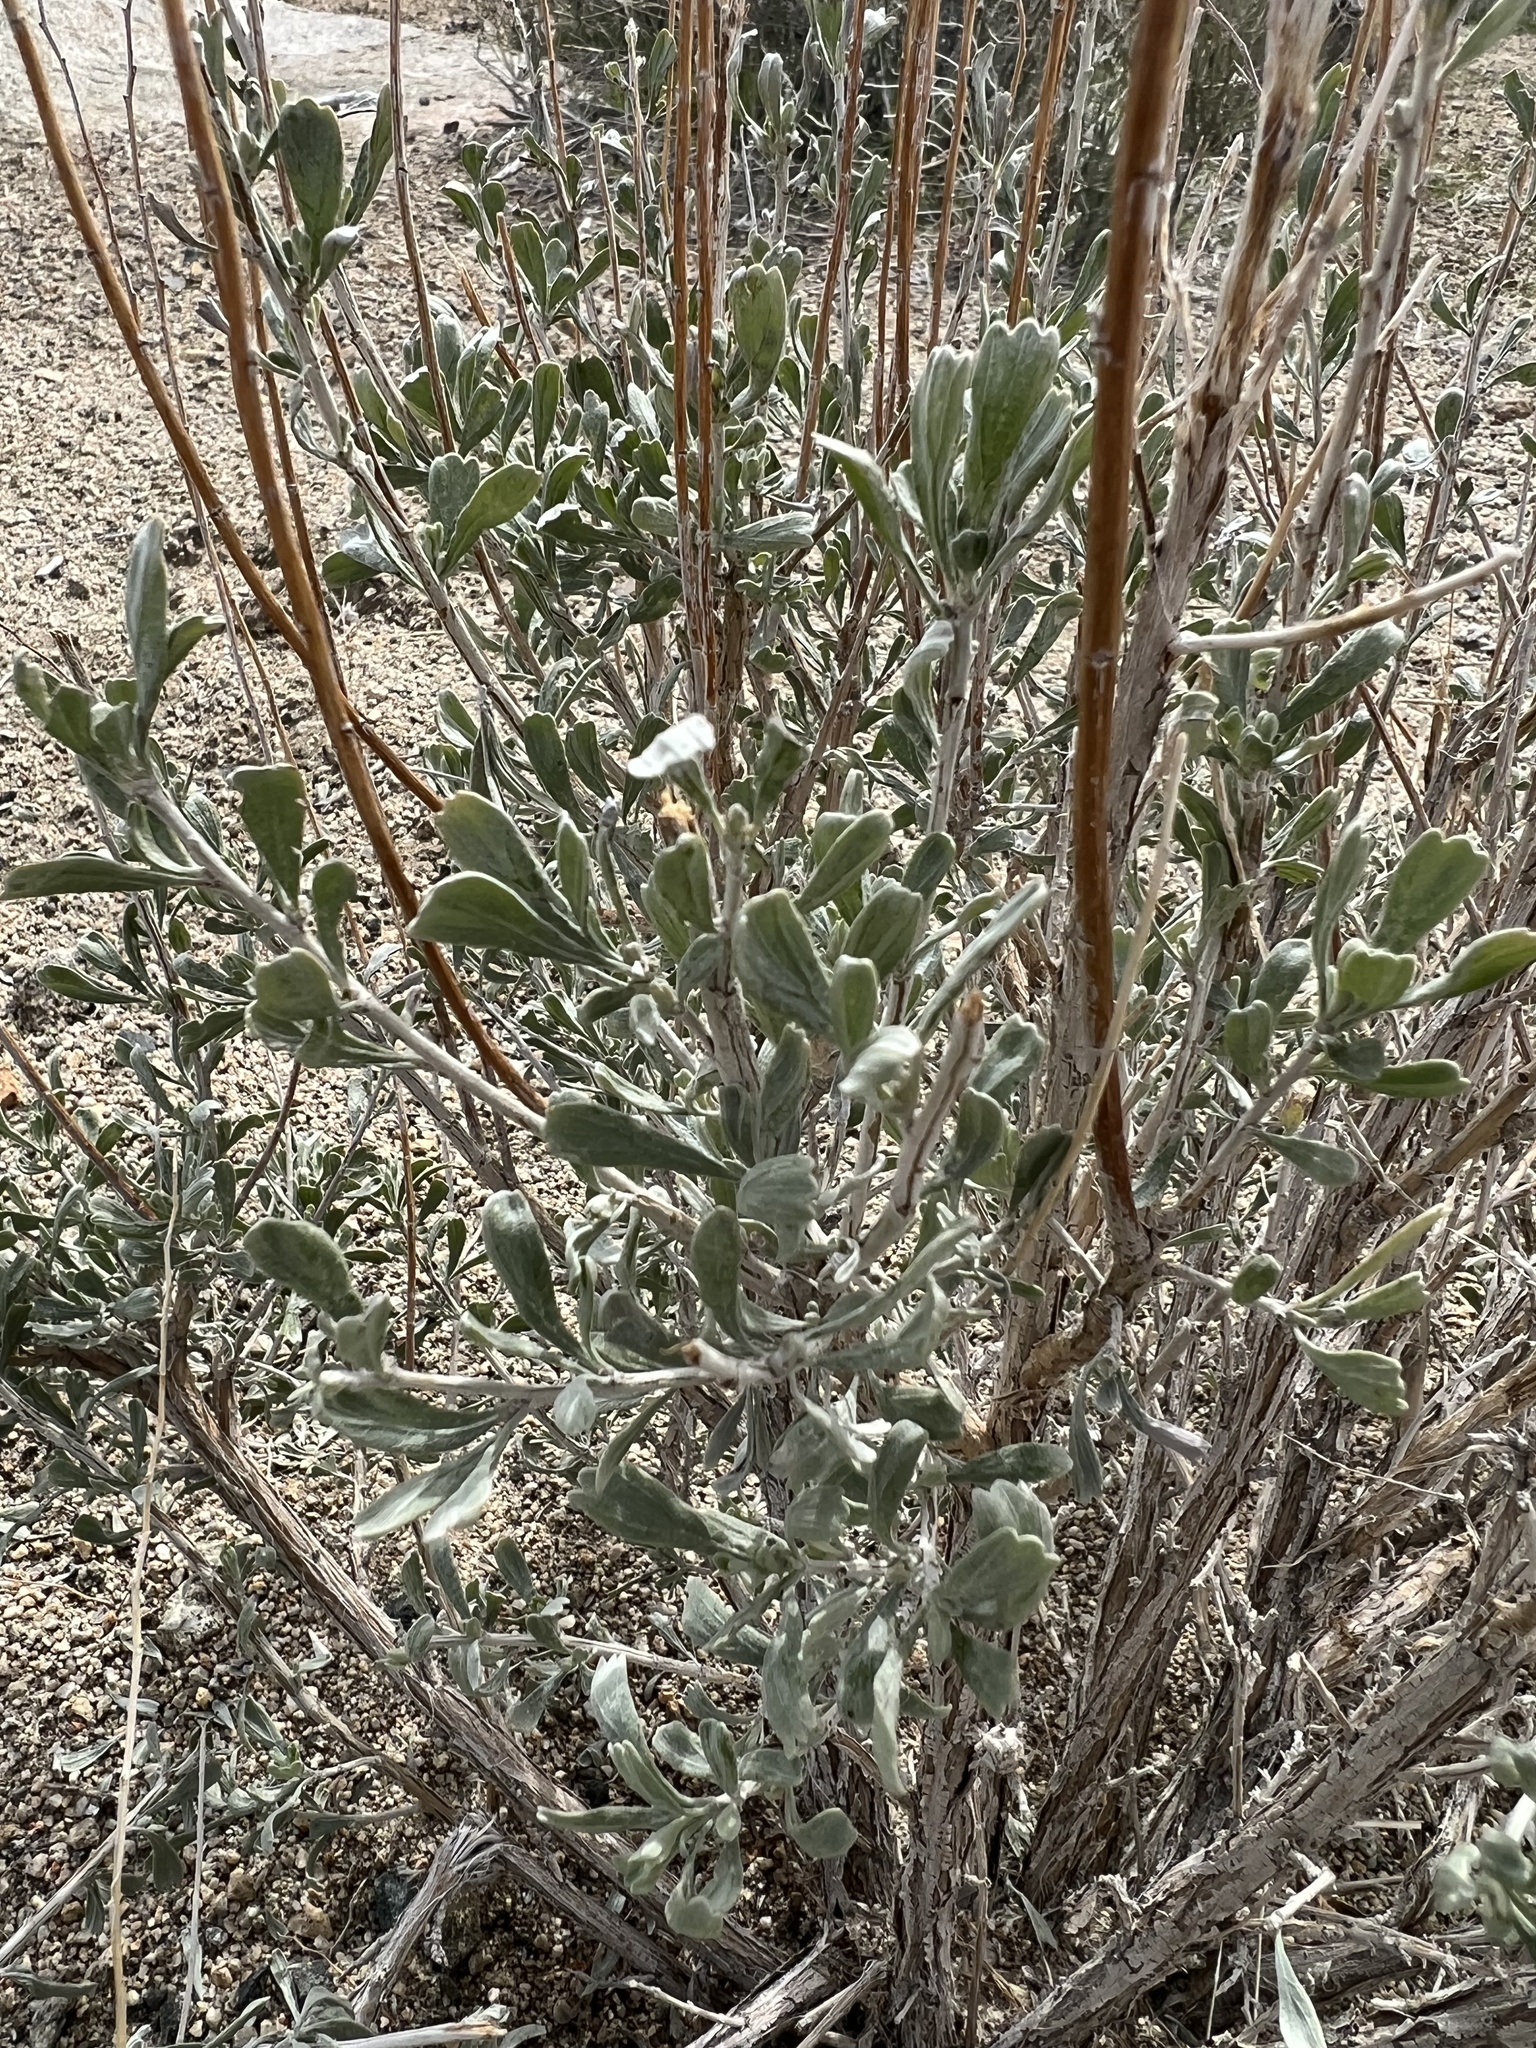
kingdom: Plantae
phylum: Tracheophyta
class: Magnoliopsida
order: Asterales
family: Asteraceae
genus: Artemisia
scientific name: Artemisia tridentata
